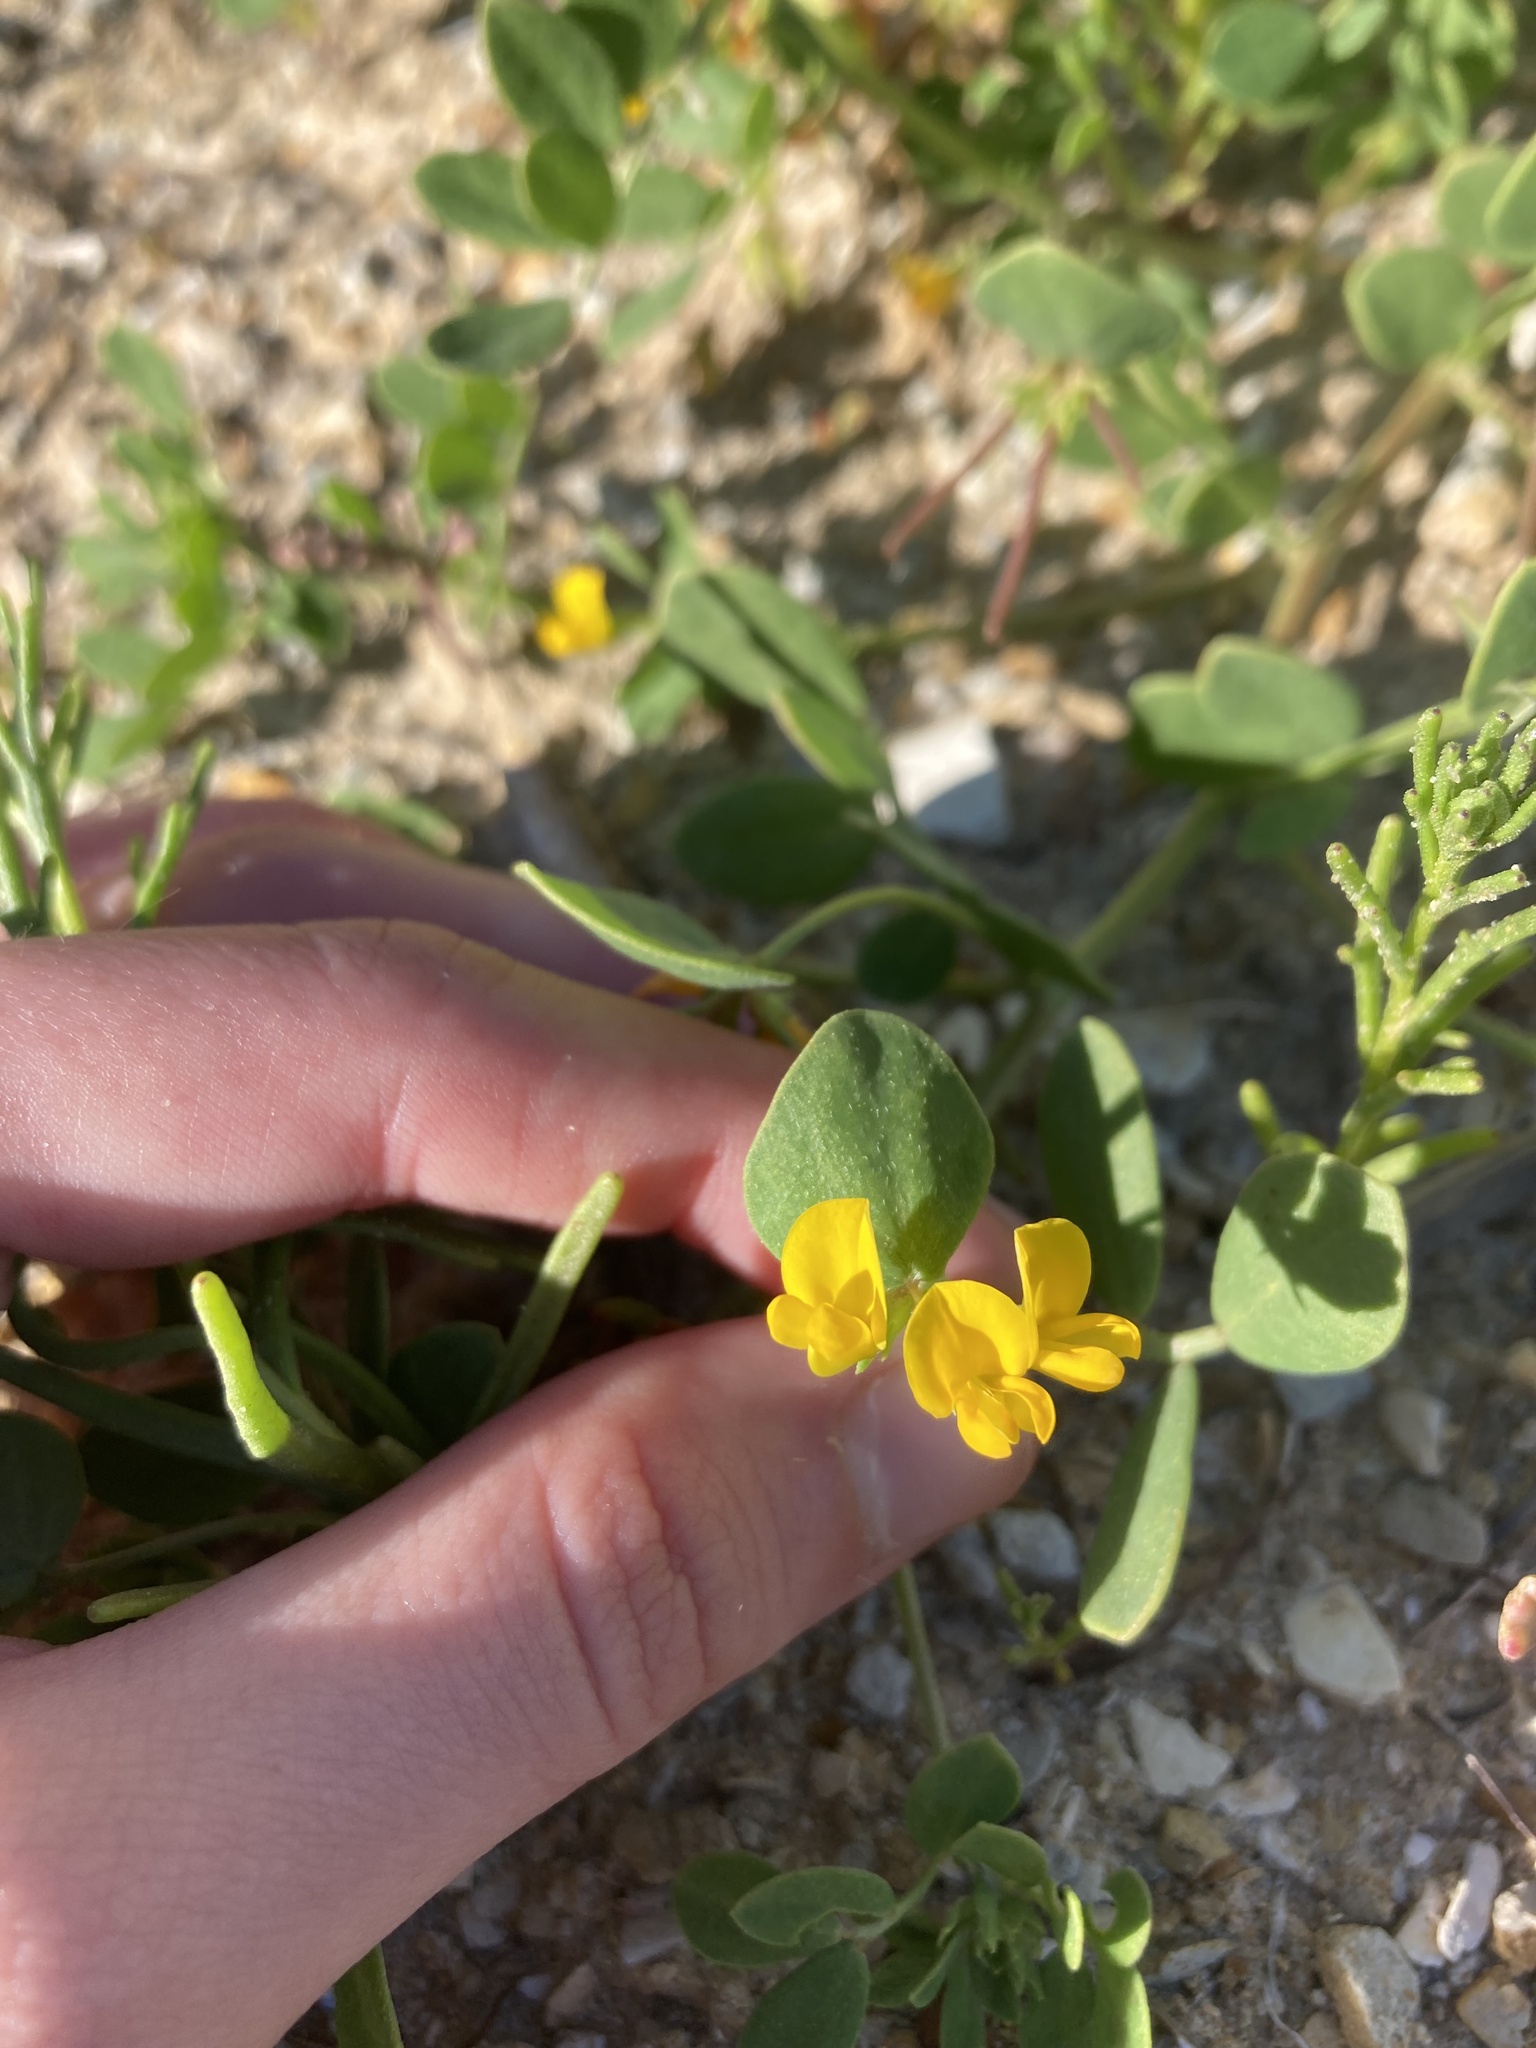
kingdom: Plantae
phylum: Tracheophyta
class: Magnoliopsida
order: Fabales
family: Fabaceae
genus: Acmispon
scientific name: Acmispon maritimus
